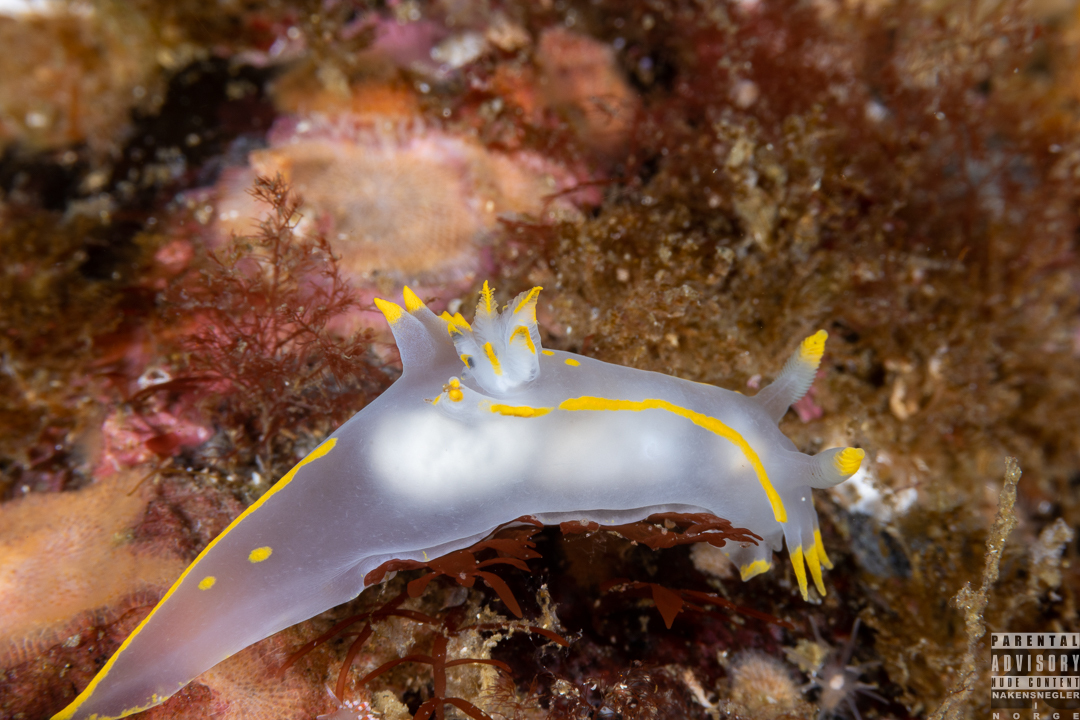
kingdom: Animalia
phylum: Mollusca
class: Gastropoda
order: Nudibranchia
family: Polyceridae
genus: Polycera
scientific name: Polycera faeroensis
